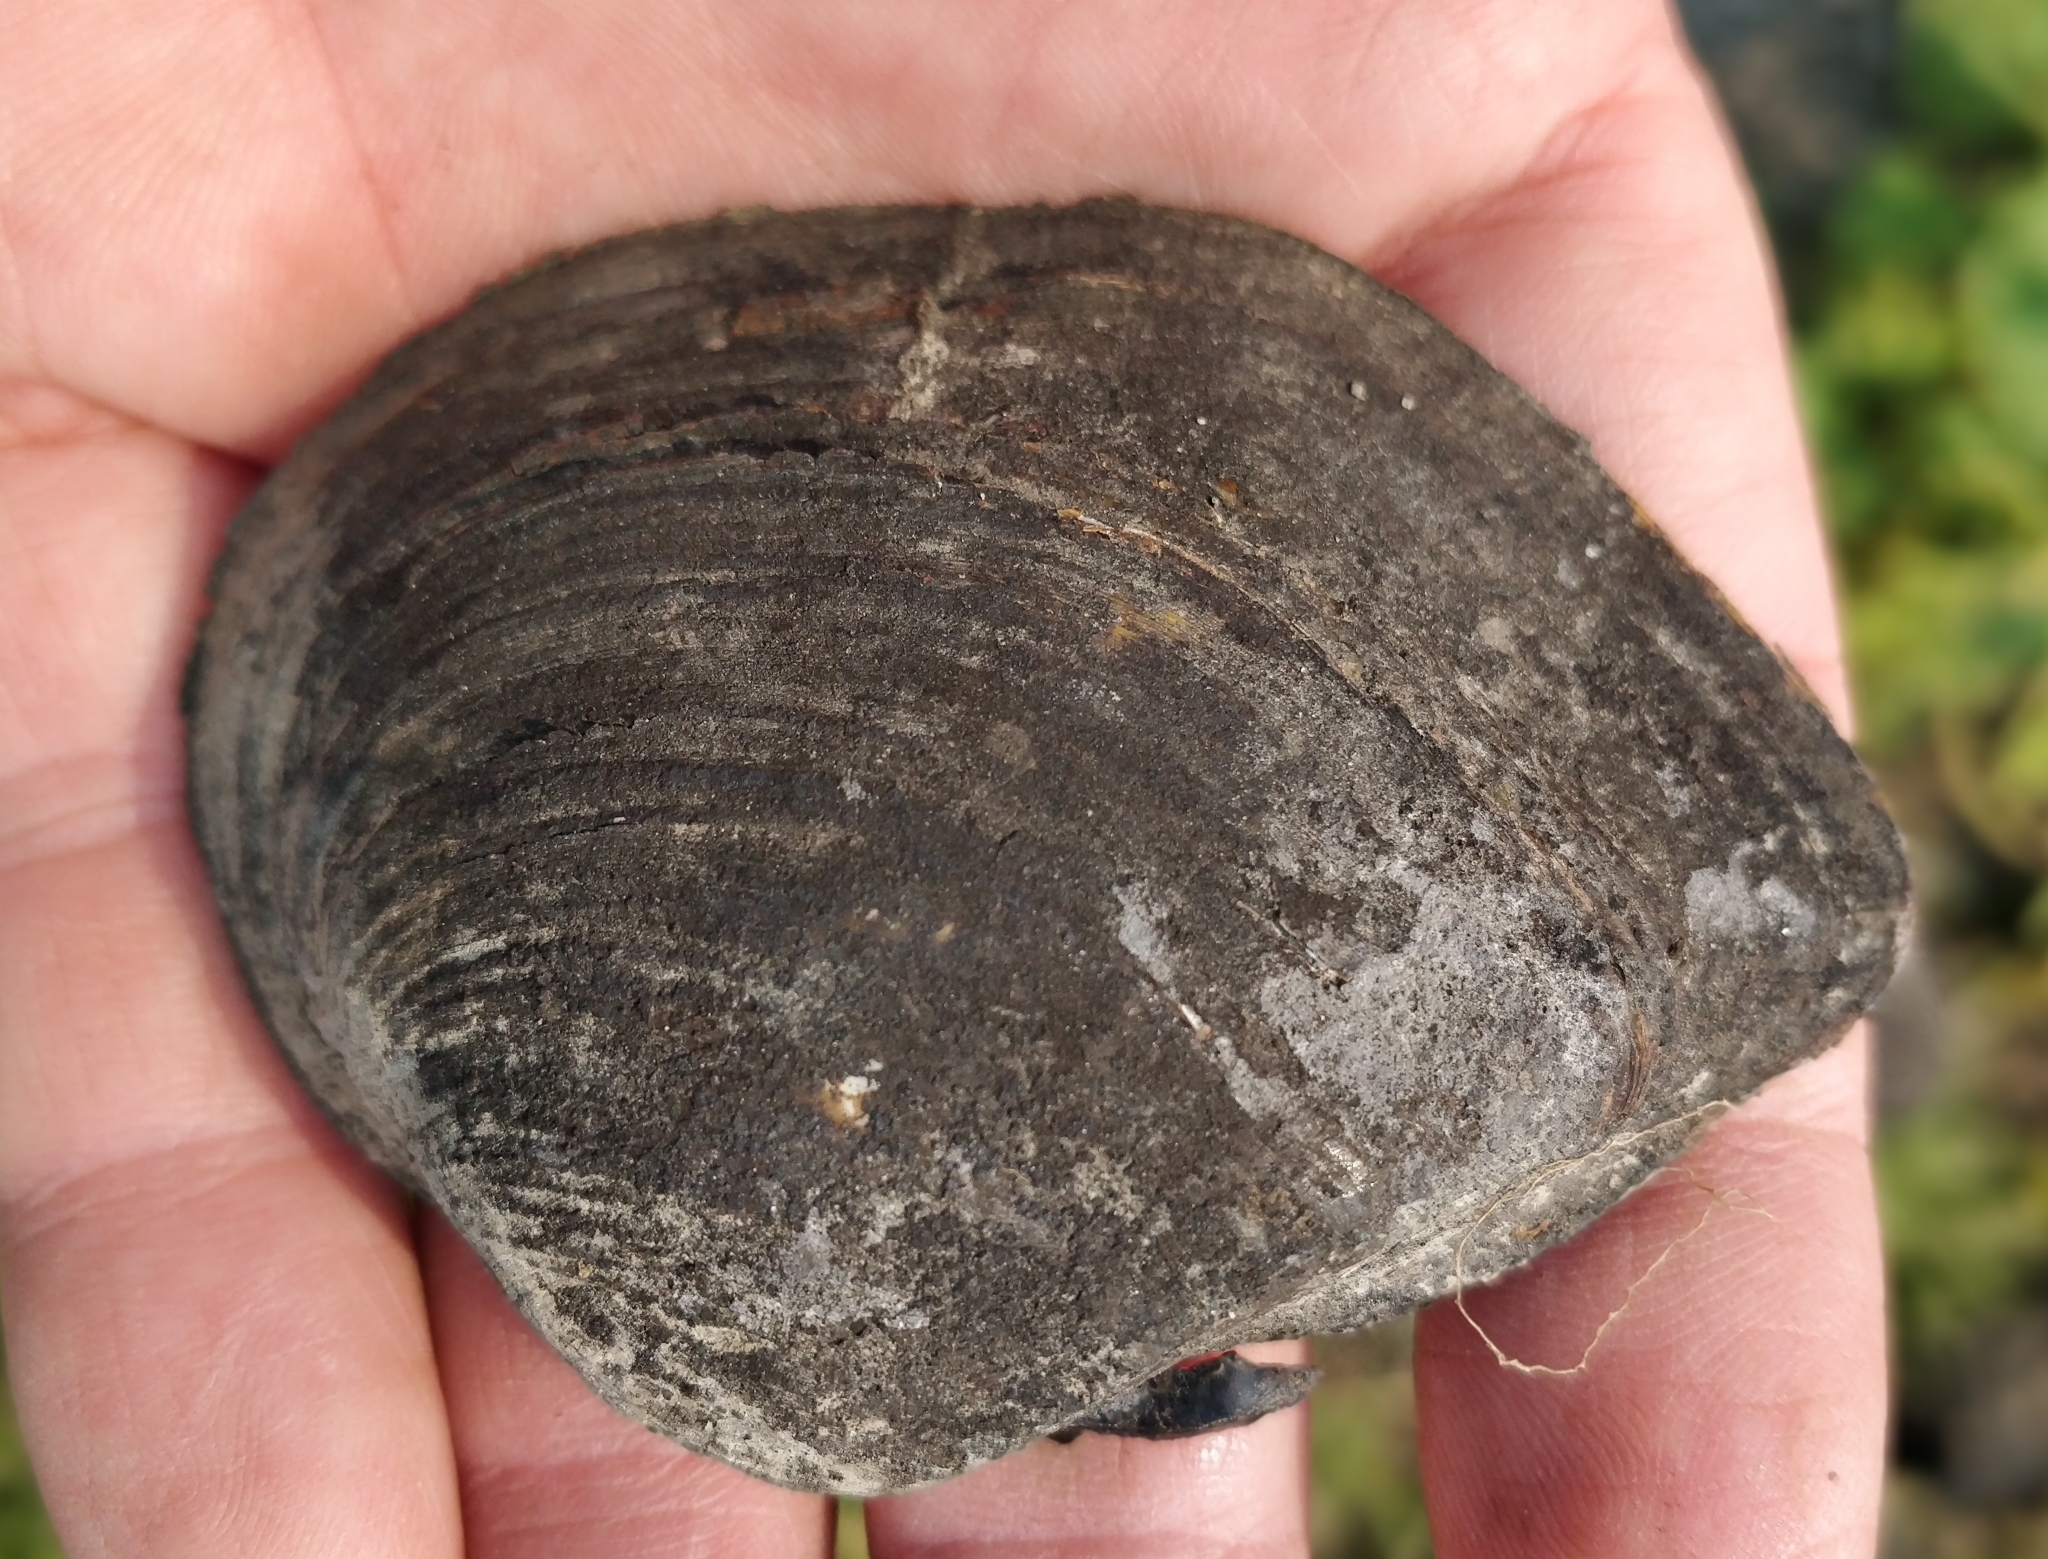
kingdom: Animalia
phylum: Mollusca
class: Bivalvia
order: Unionida
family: Unionidae
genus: Truncilla
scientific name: Truncilla truncata
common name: Deertoe
